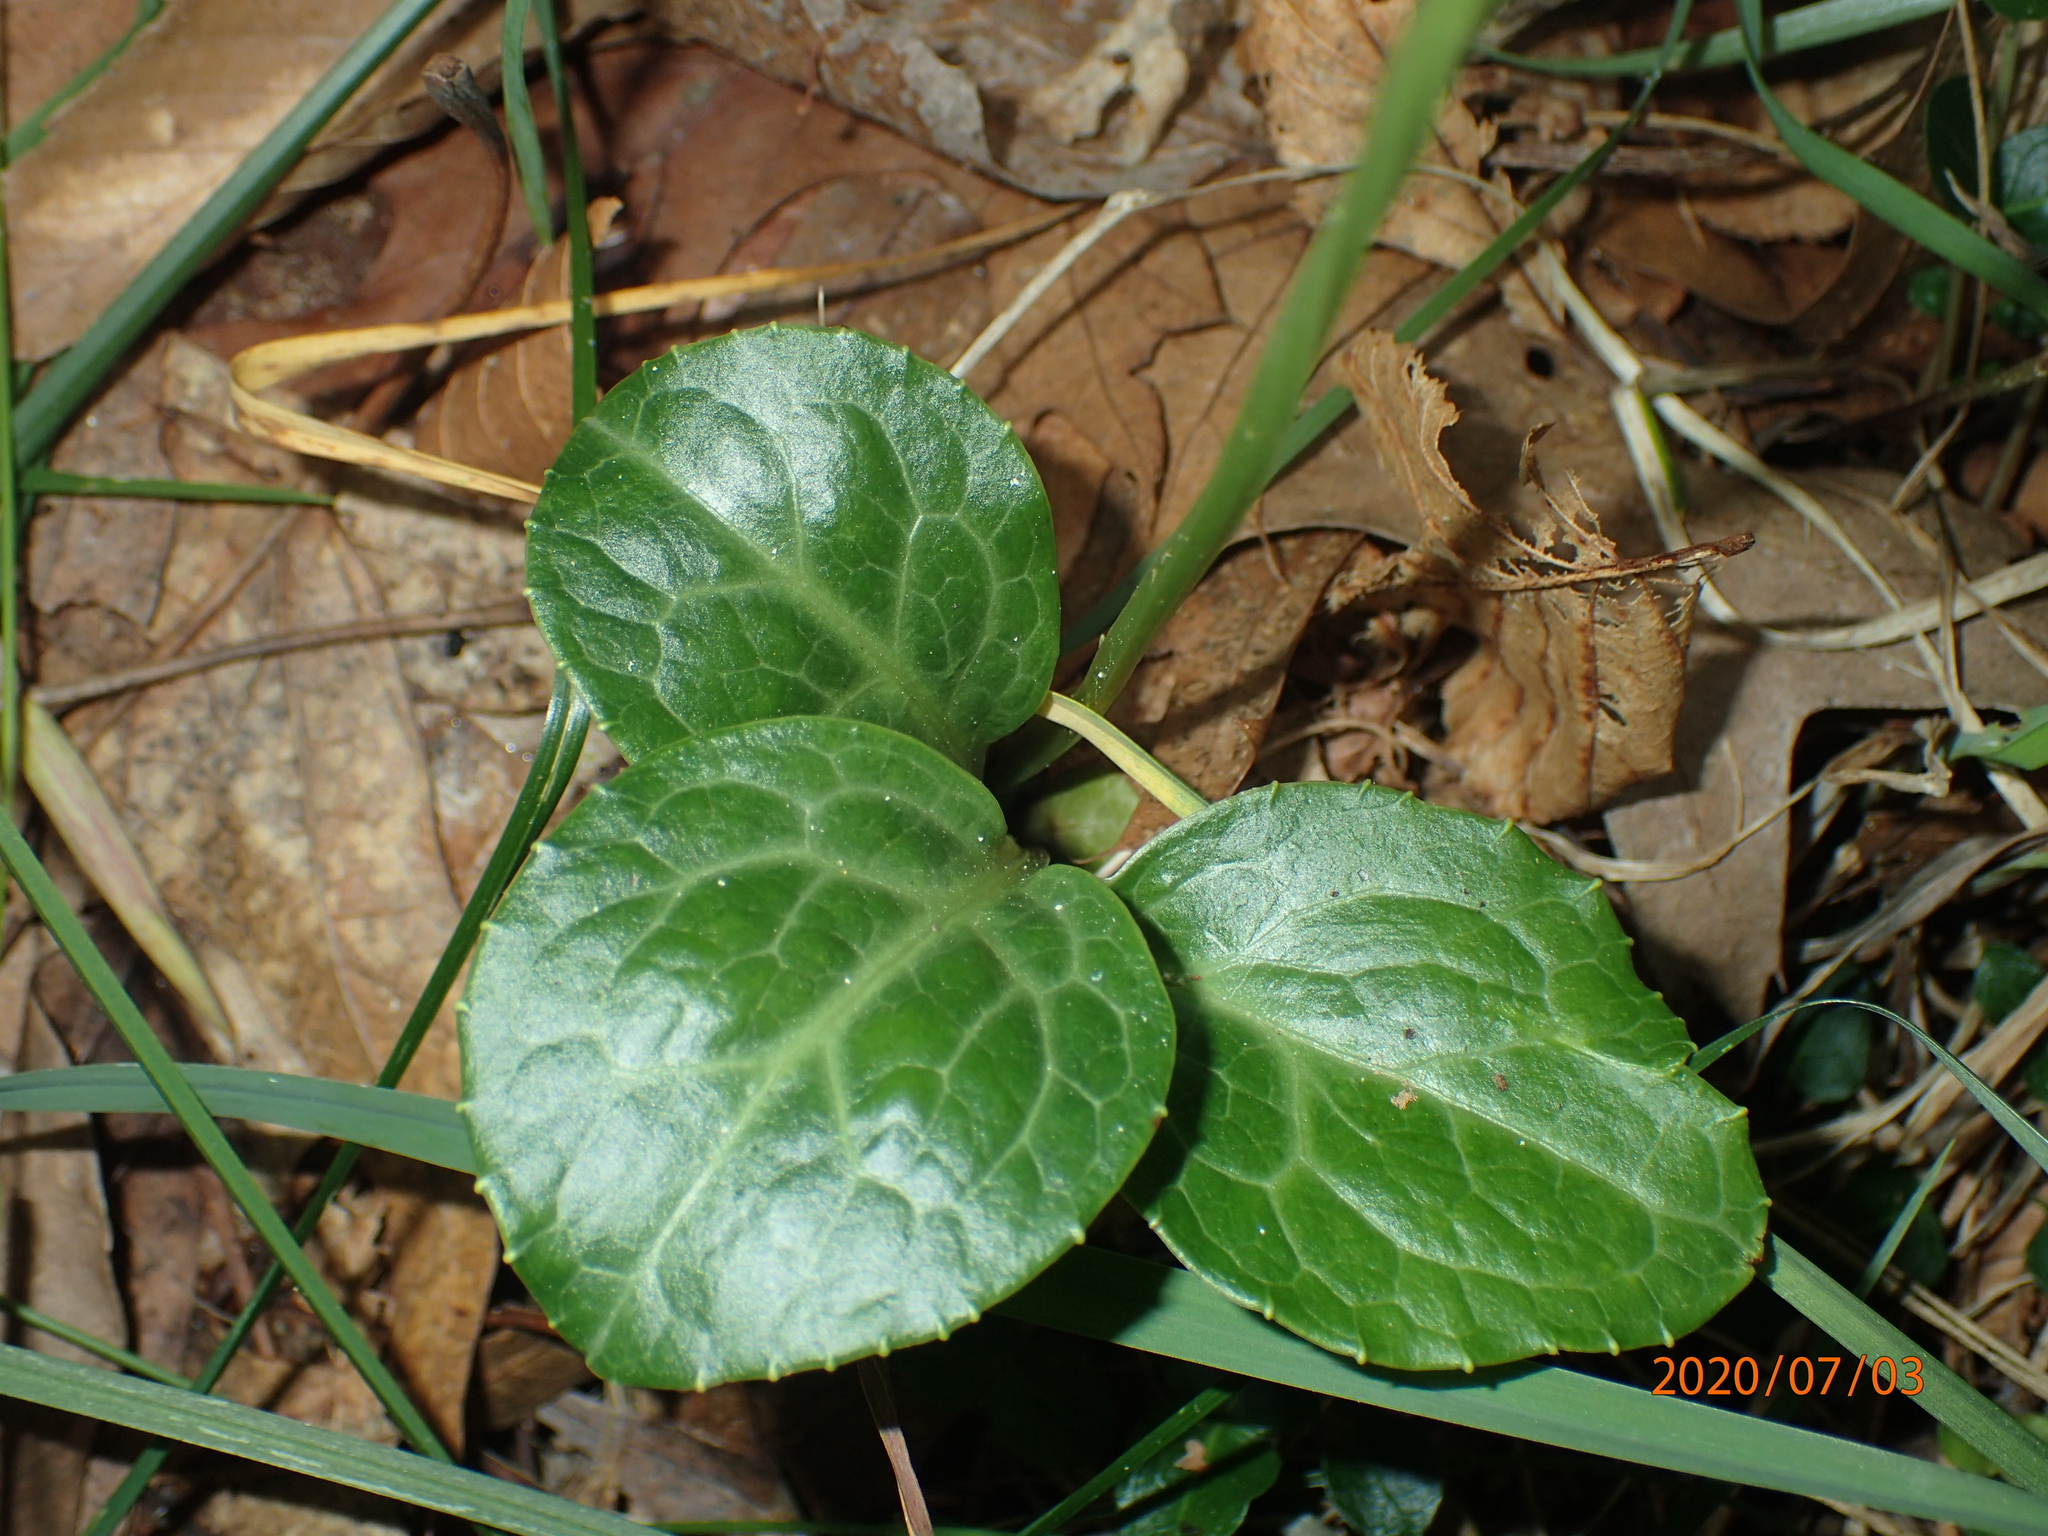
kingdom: Plantae
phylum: Tracheophyta
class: Magnoliopsida
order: Ericales
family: Ericaceae
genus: Pyrola
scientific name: Pyrola americana
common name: American wintergreen
